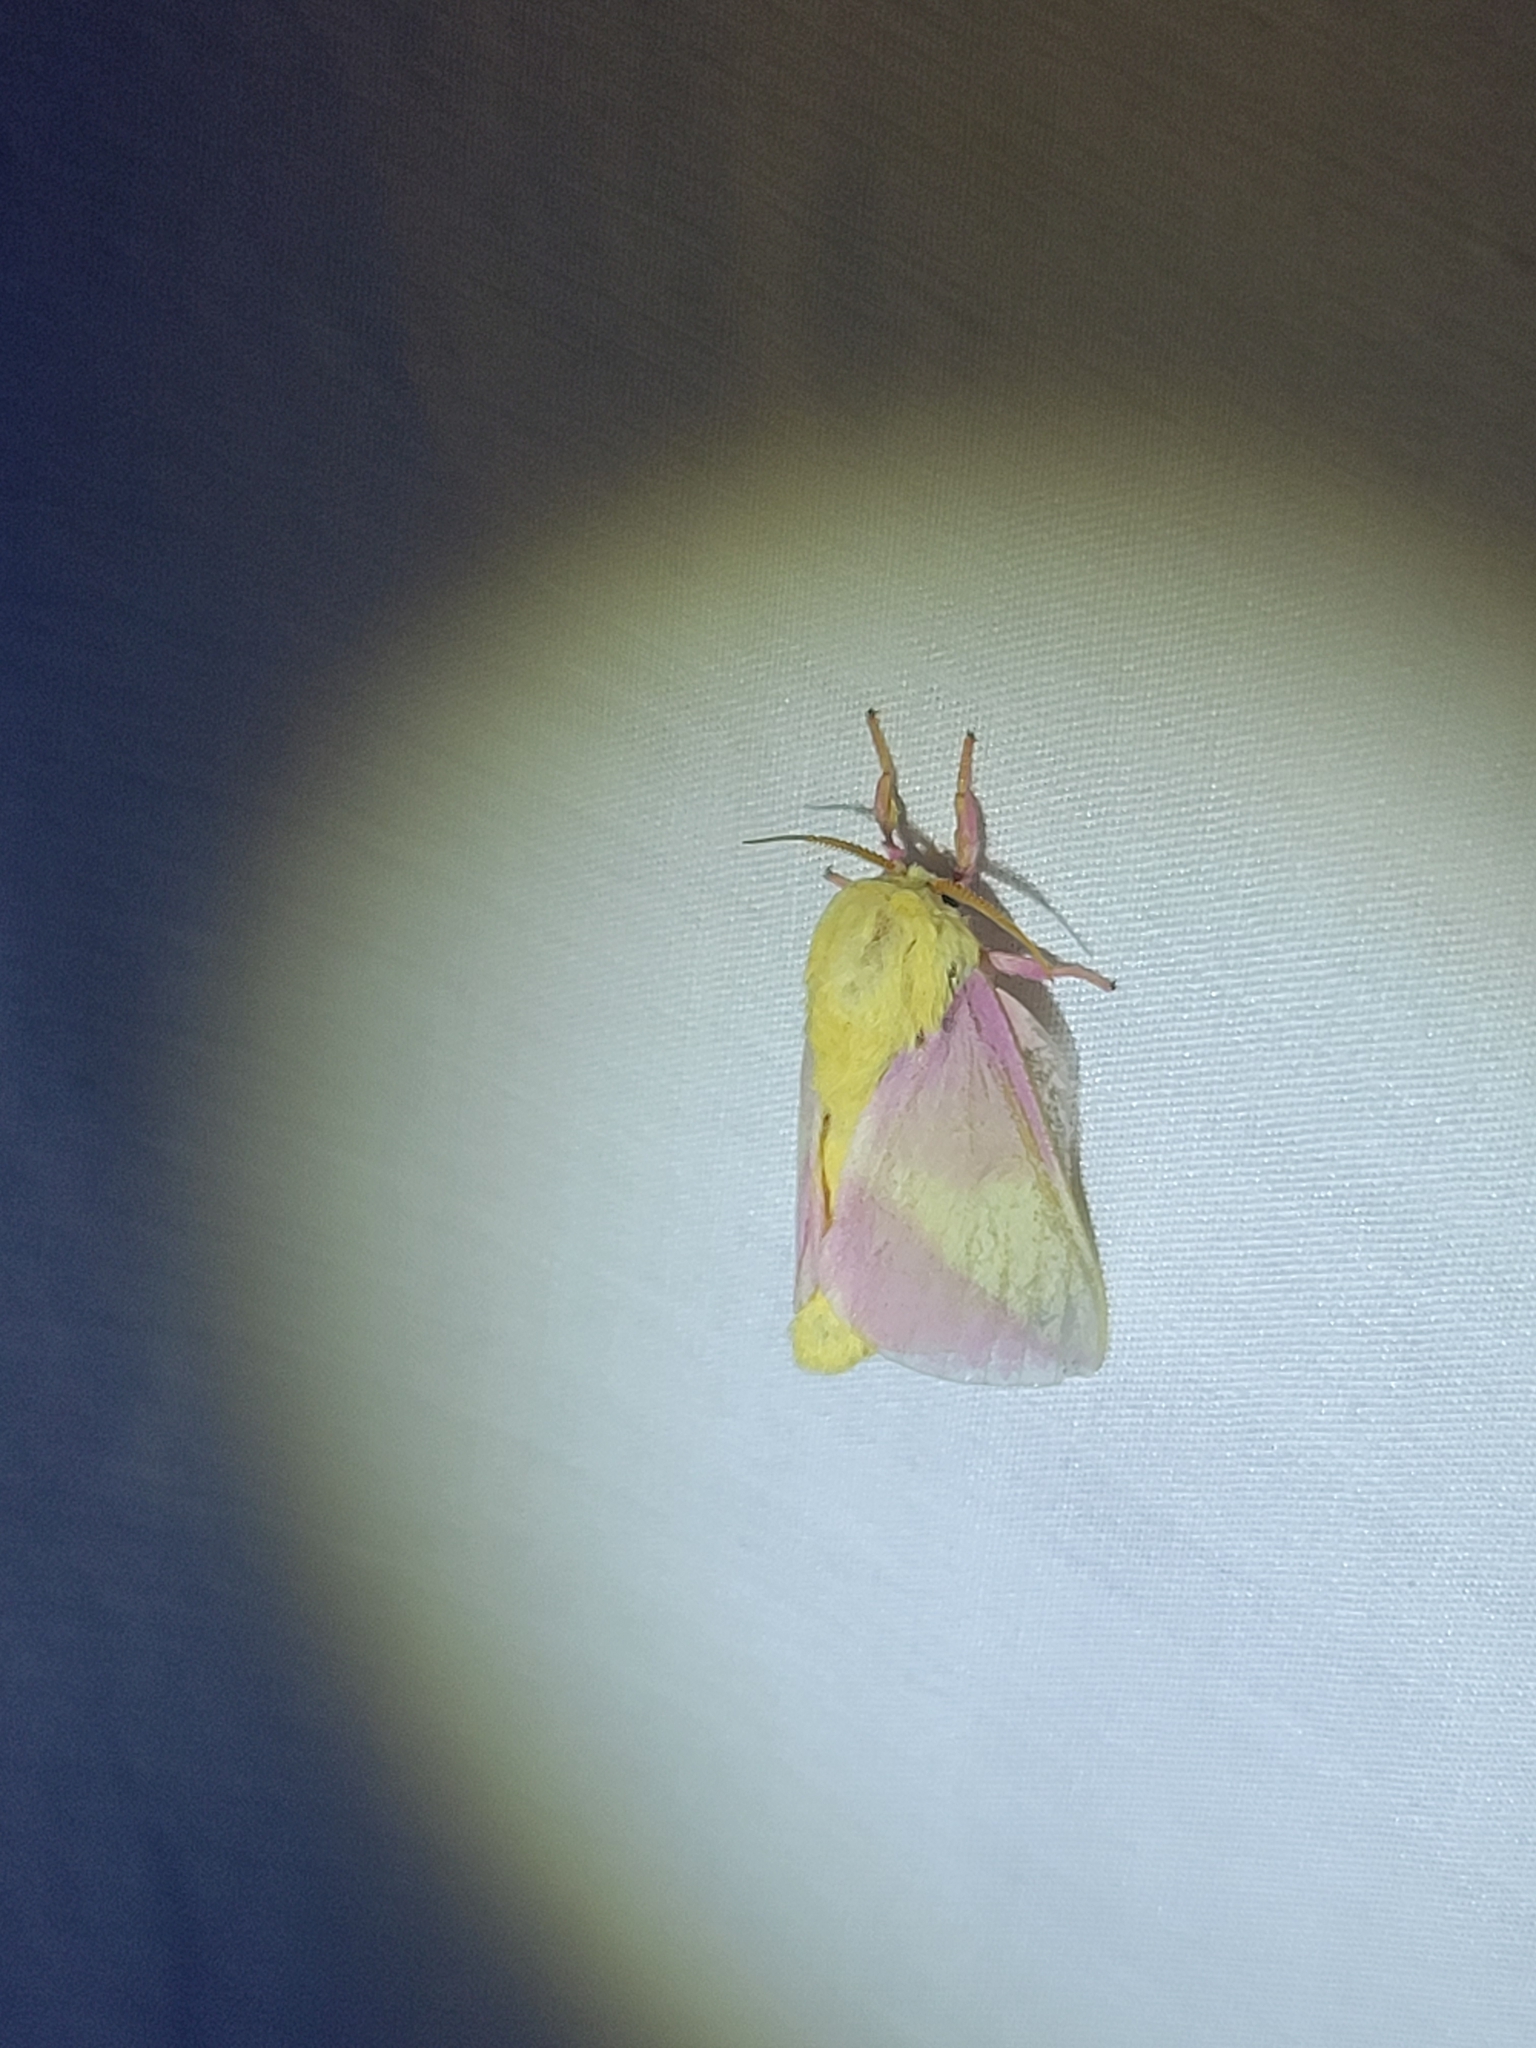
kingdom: Animalia
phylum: Arthropoda
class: Insecta
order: Lepidoptera
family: Saturniidae
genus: Dryocampa
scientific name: Dryocampa rubicunda
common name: Rosy maple moth
